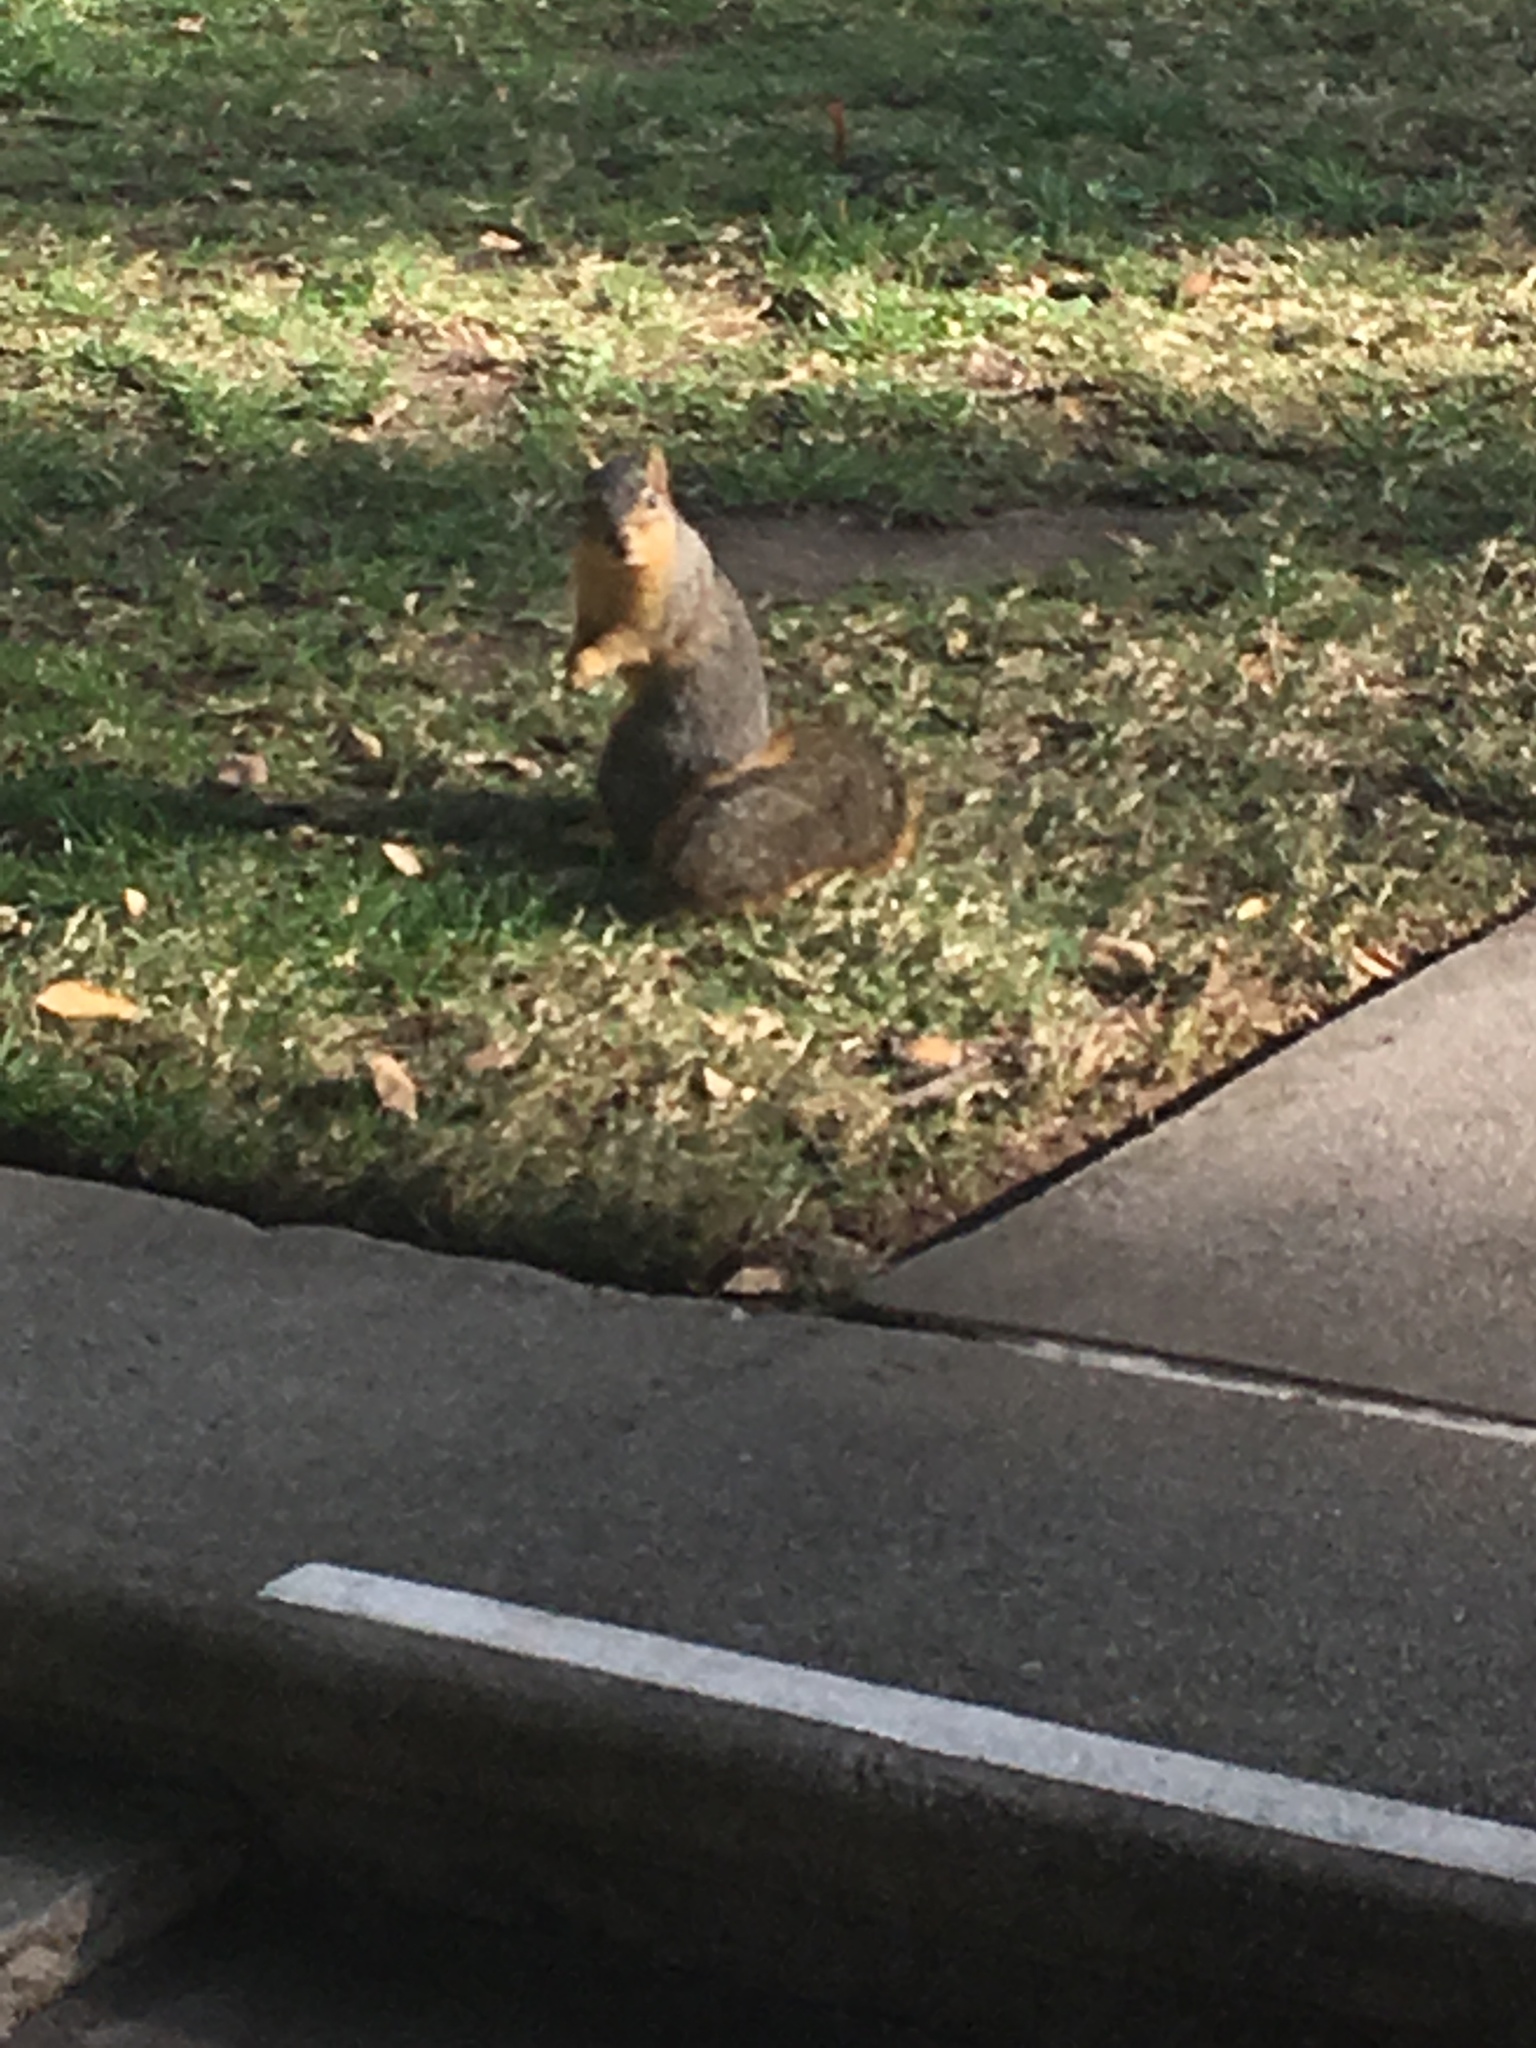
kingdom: Animalia
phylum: Chordata
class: Mammalia
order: Rodentia
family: Sciuridae
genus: Sciurus
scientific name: Sciurus niger
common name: Fox squirrel
